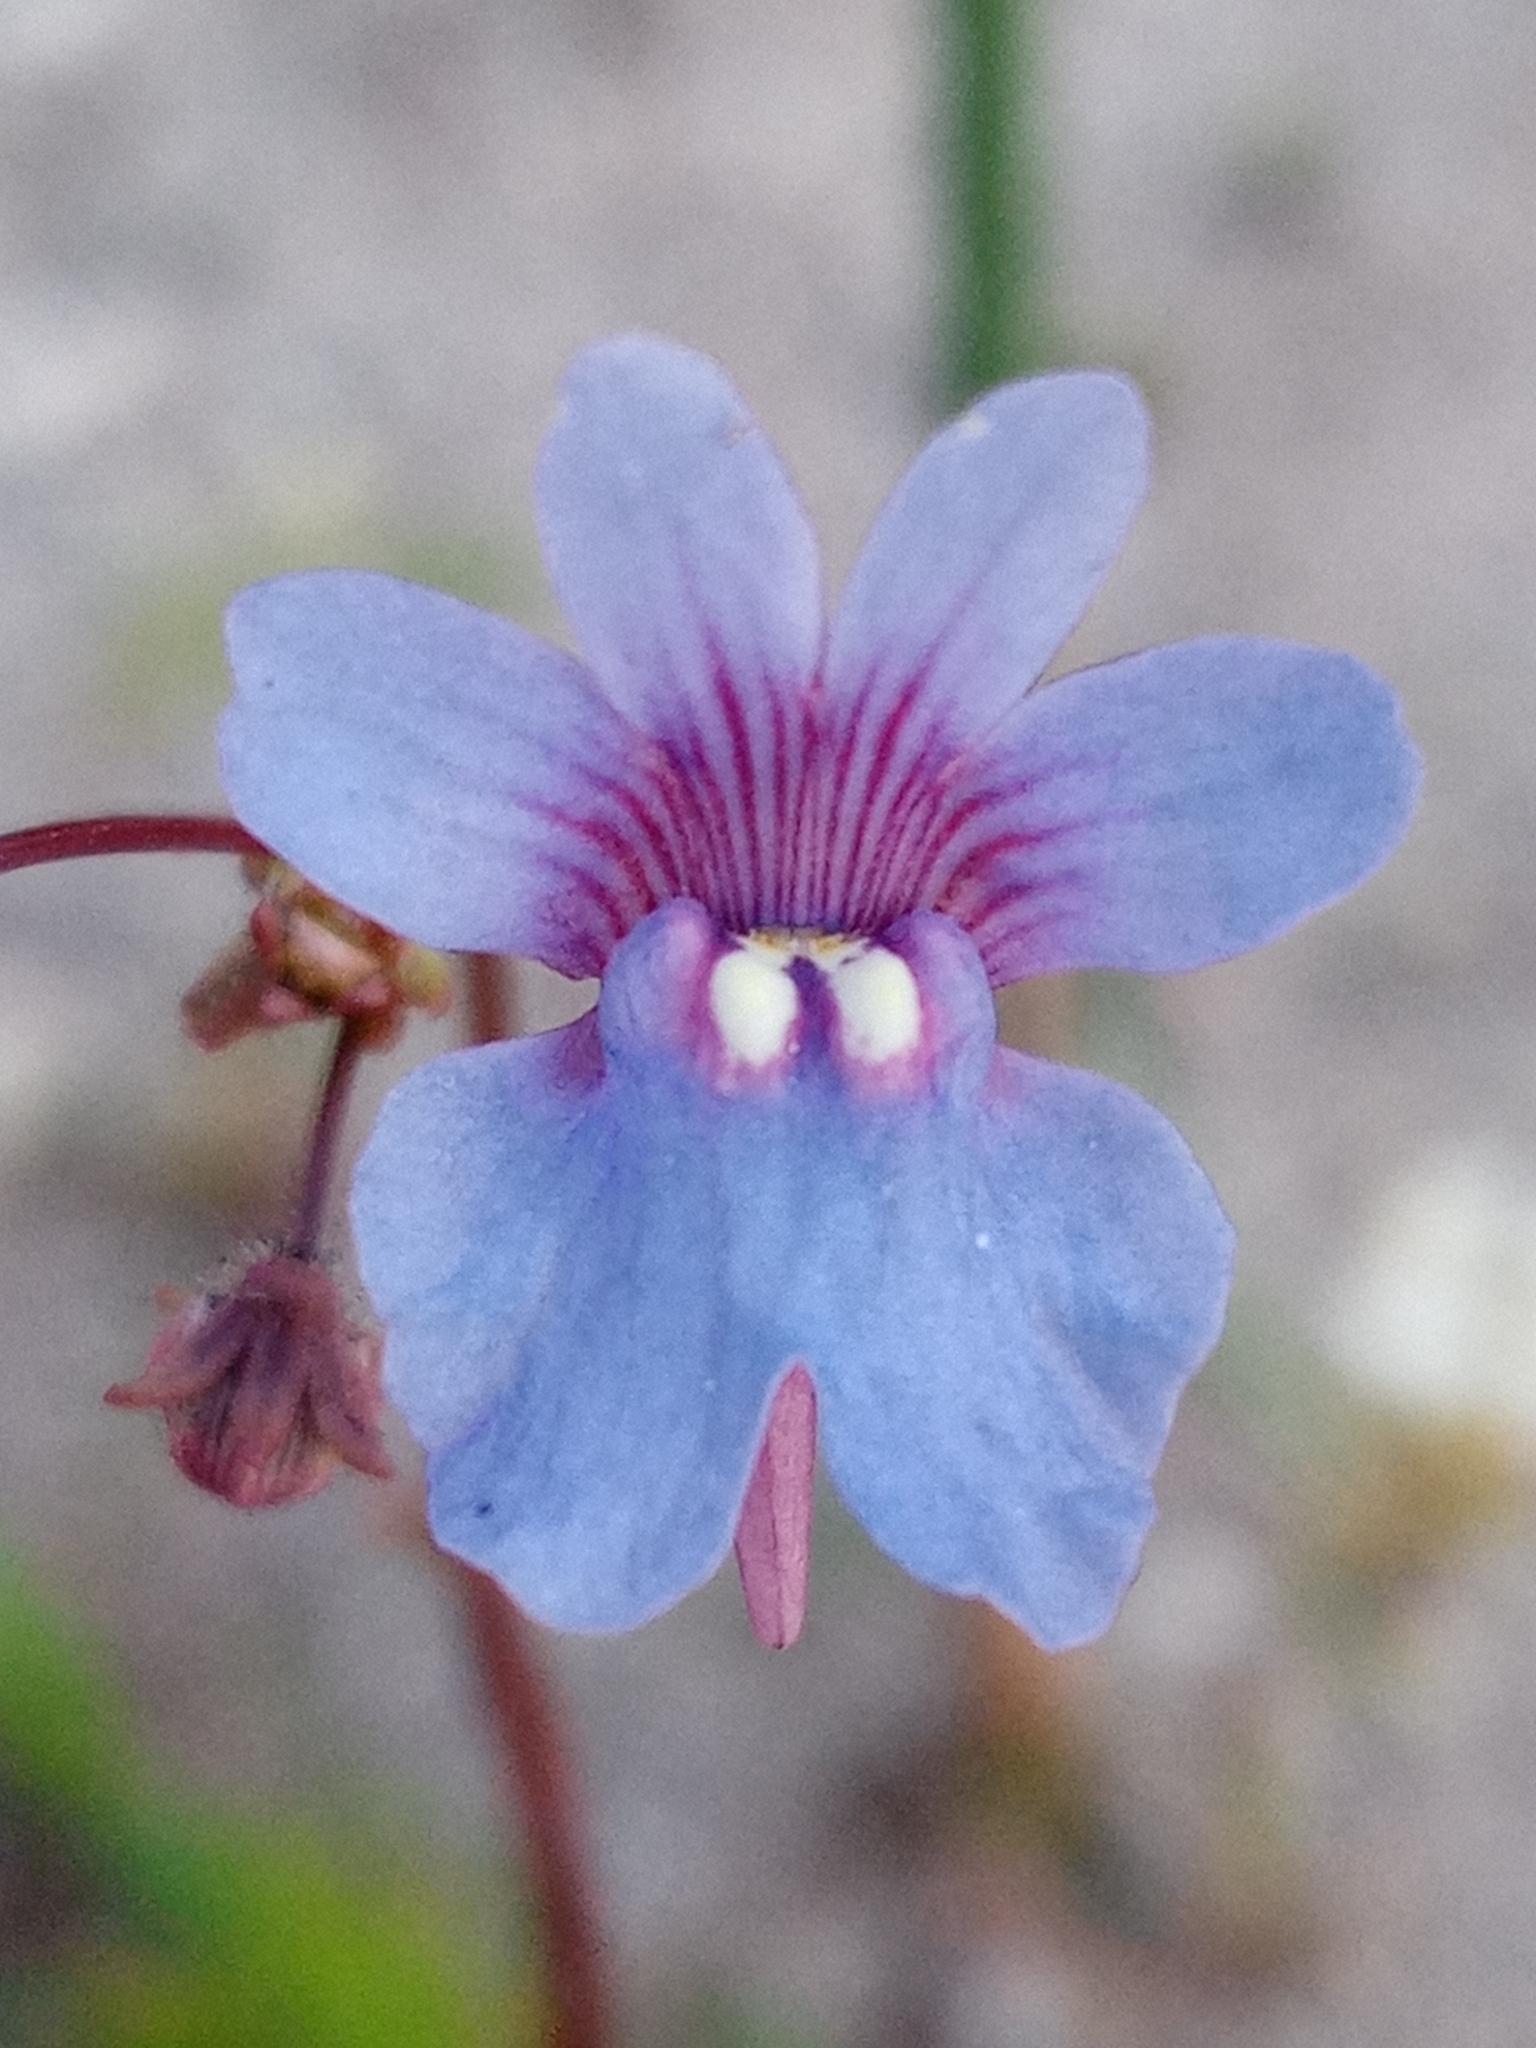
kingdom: Plantae
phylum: Tracheophyta
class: Magnoliopsida
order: Lamiales
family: Scrophulariaceae
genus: Nemesia
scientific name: Nemesia affinis
